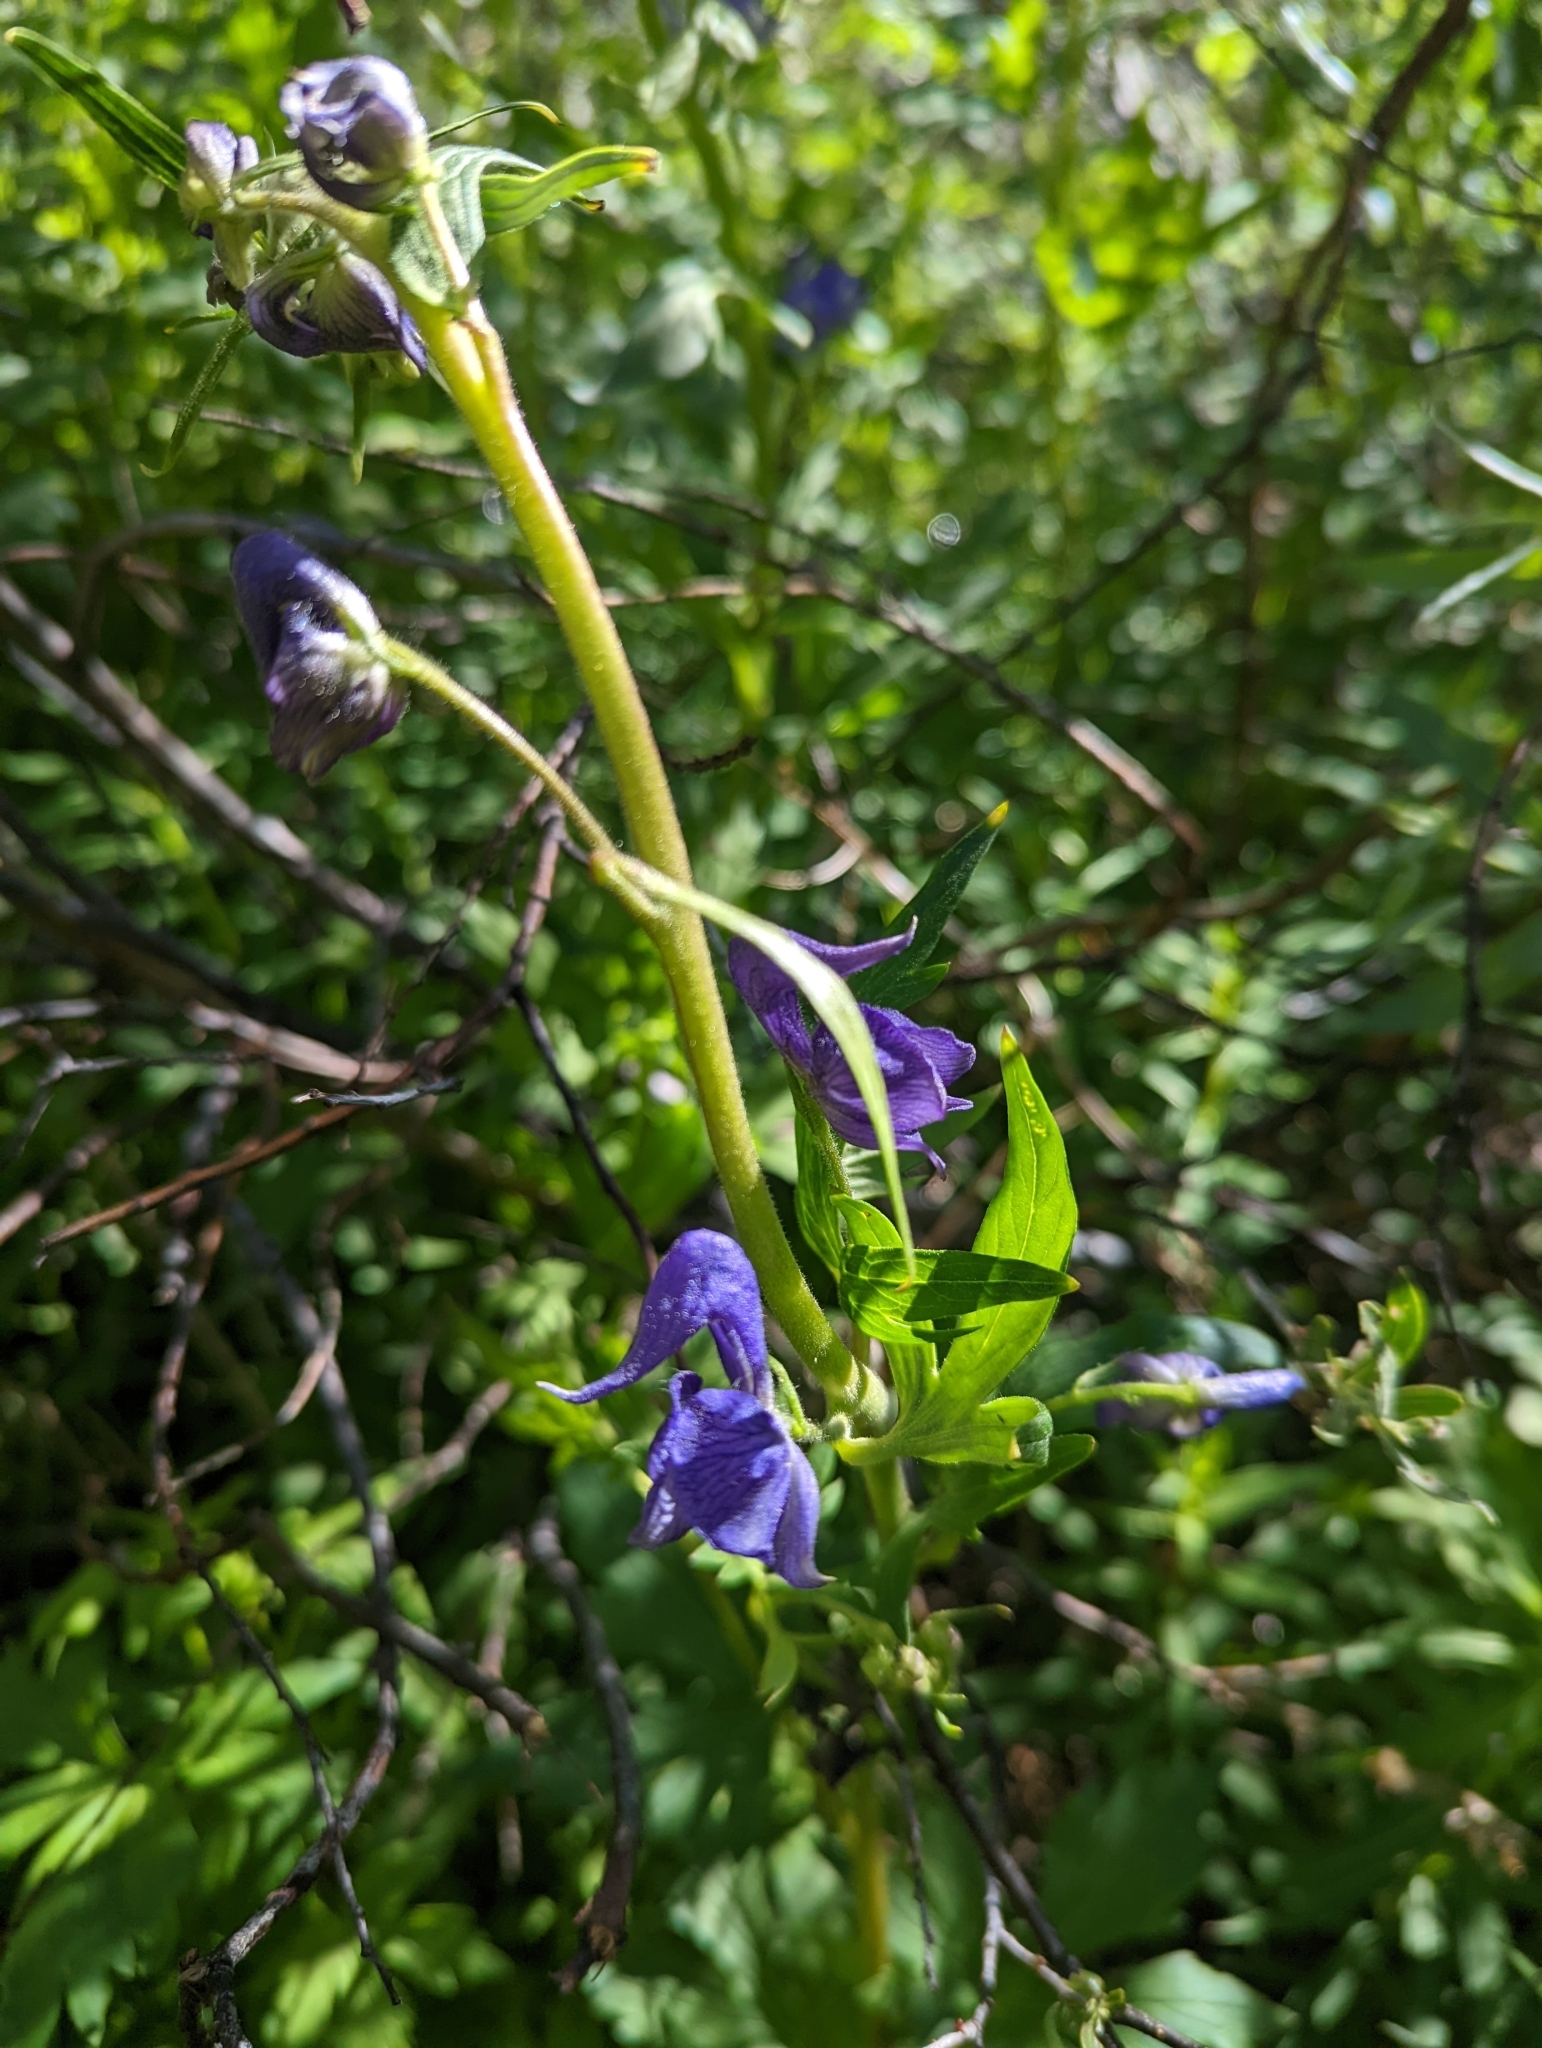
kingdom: Plantae
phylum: Tracheophyta
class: Magnoliopsida
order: Ranunculales
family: Ranunculaceae
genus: Aconitum
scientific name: Aconitum columbianum
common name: Columbia aconite
